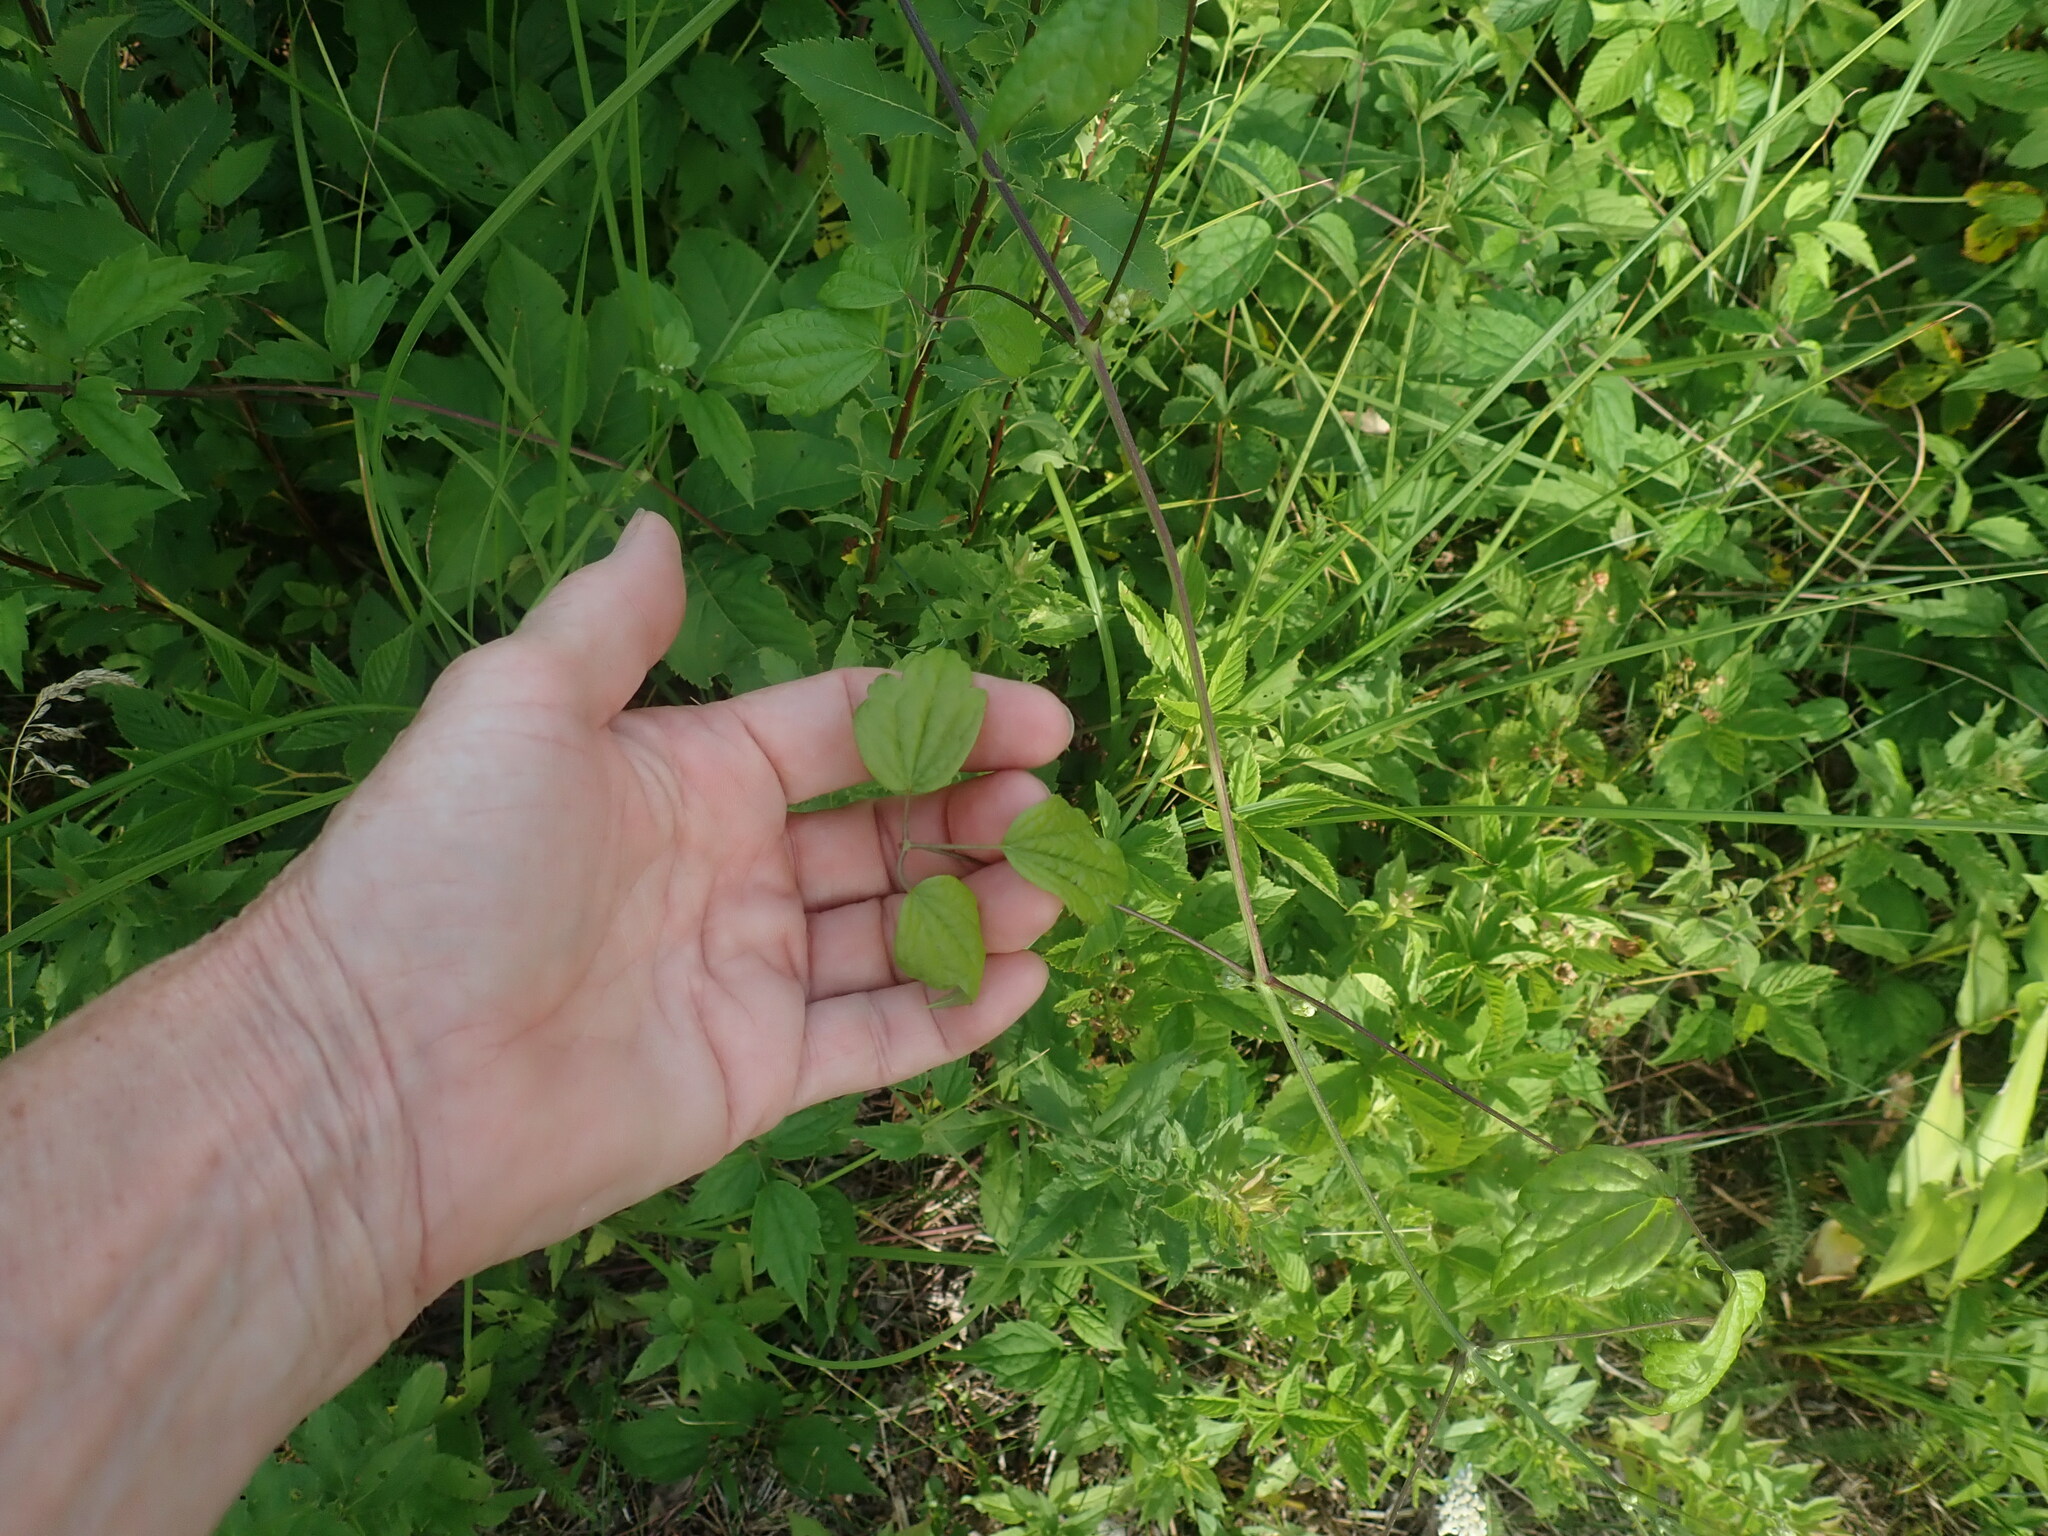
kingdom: Plantae
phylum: Tracheophyta
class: Magnoliopsida
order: Ranunculales
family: Ranunculaceae
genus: Clematis
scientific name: Clematis virginiana
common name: Virgin's-bower
